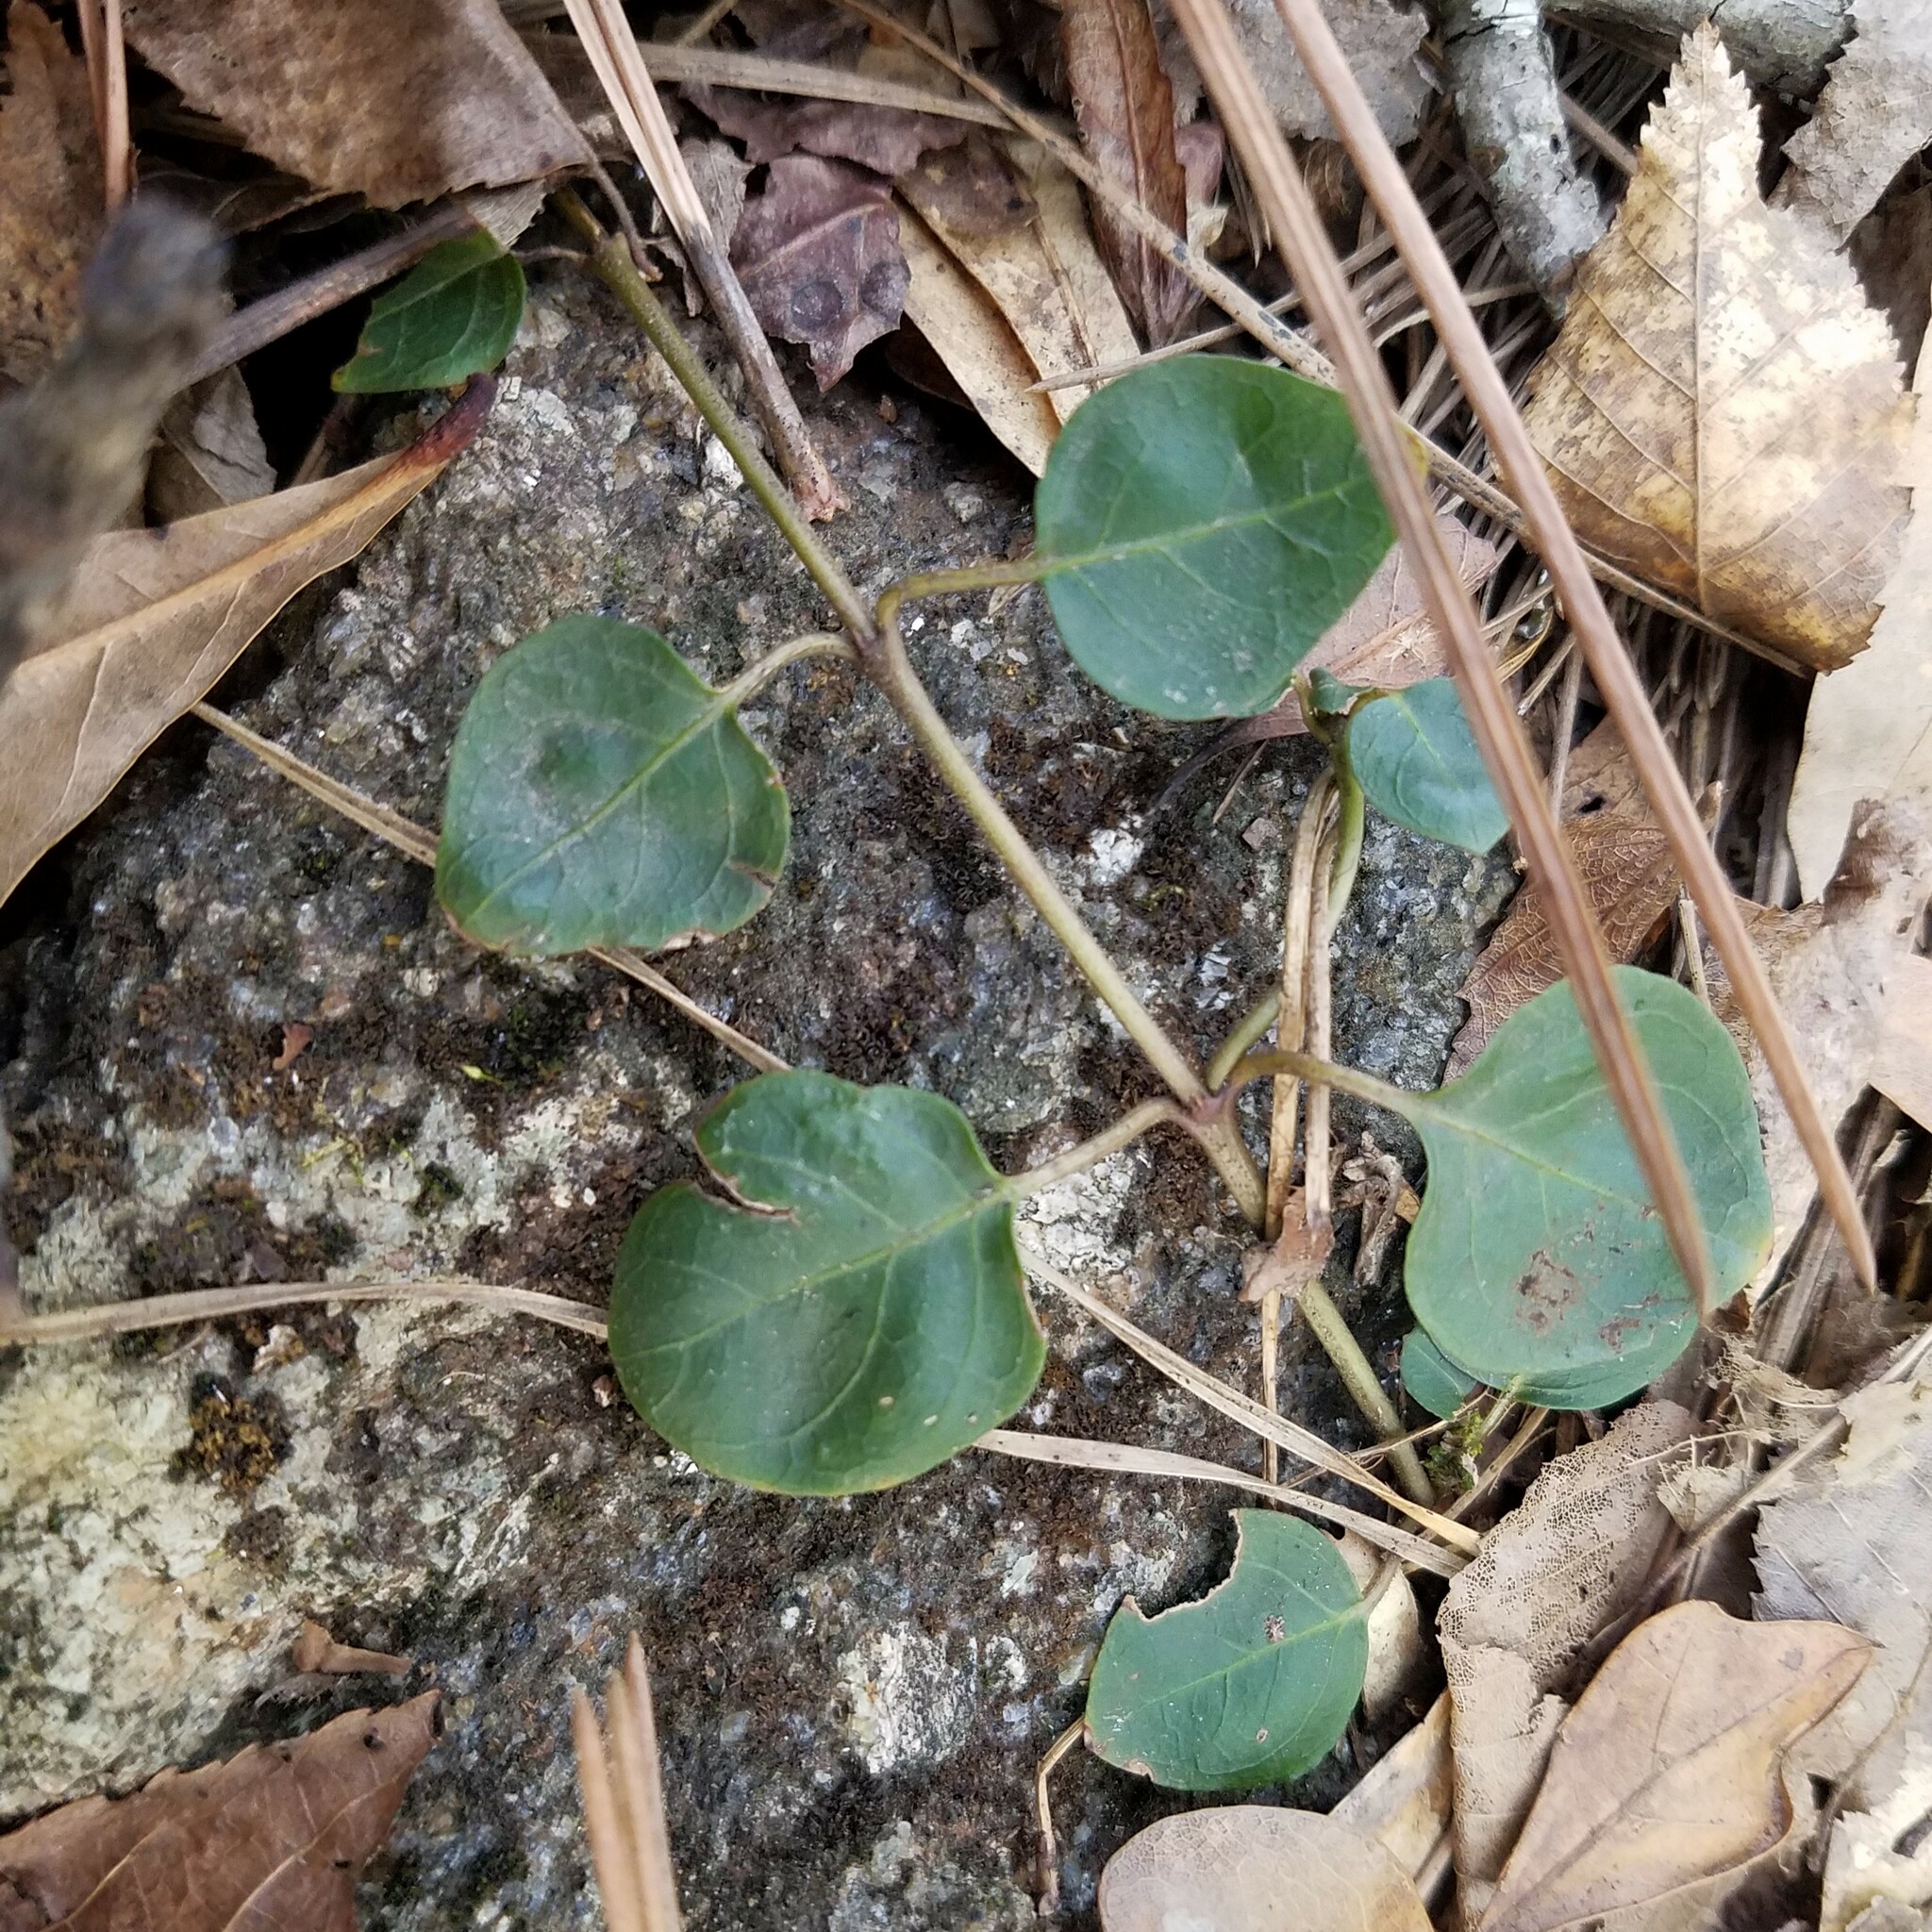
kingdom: Plantae
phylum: Tracheophyta
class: Magnoliopsida
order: Gentianales
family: Rubiaceae
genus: Mitchella
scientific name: Mitchella repens
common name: Partridge-berry
